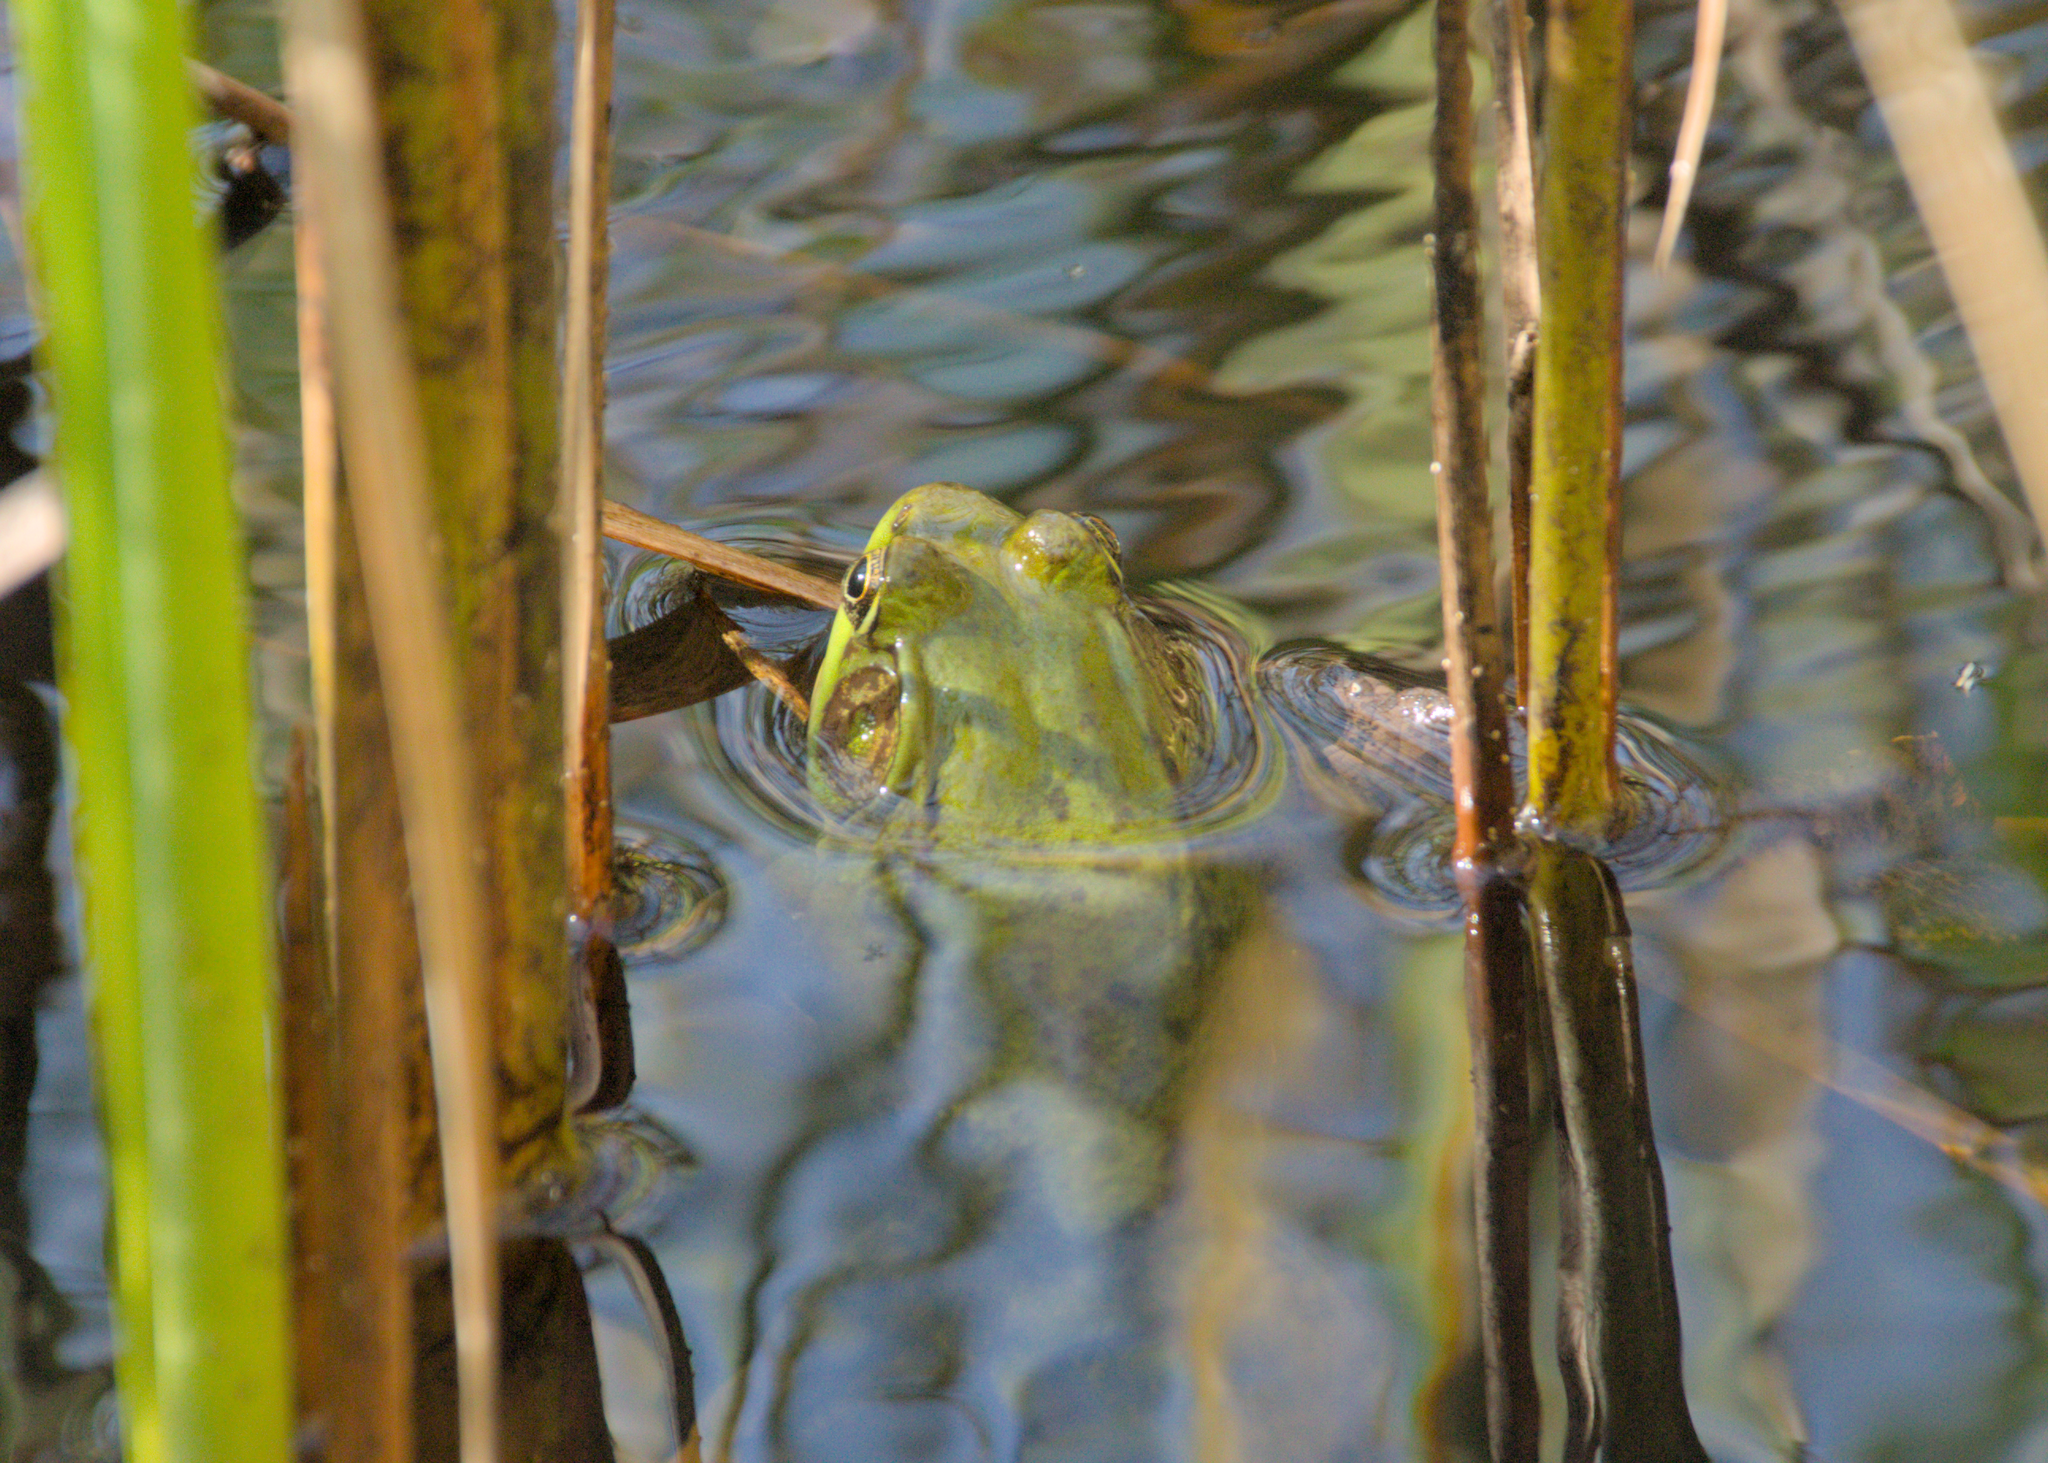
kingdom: Animalia
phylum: Chordata
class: Amphibia
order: Anura
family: Ranidae
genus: Lithobates
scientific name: Lithobates clamitans
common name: Green frog
